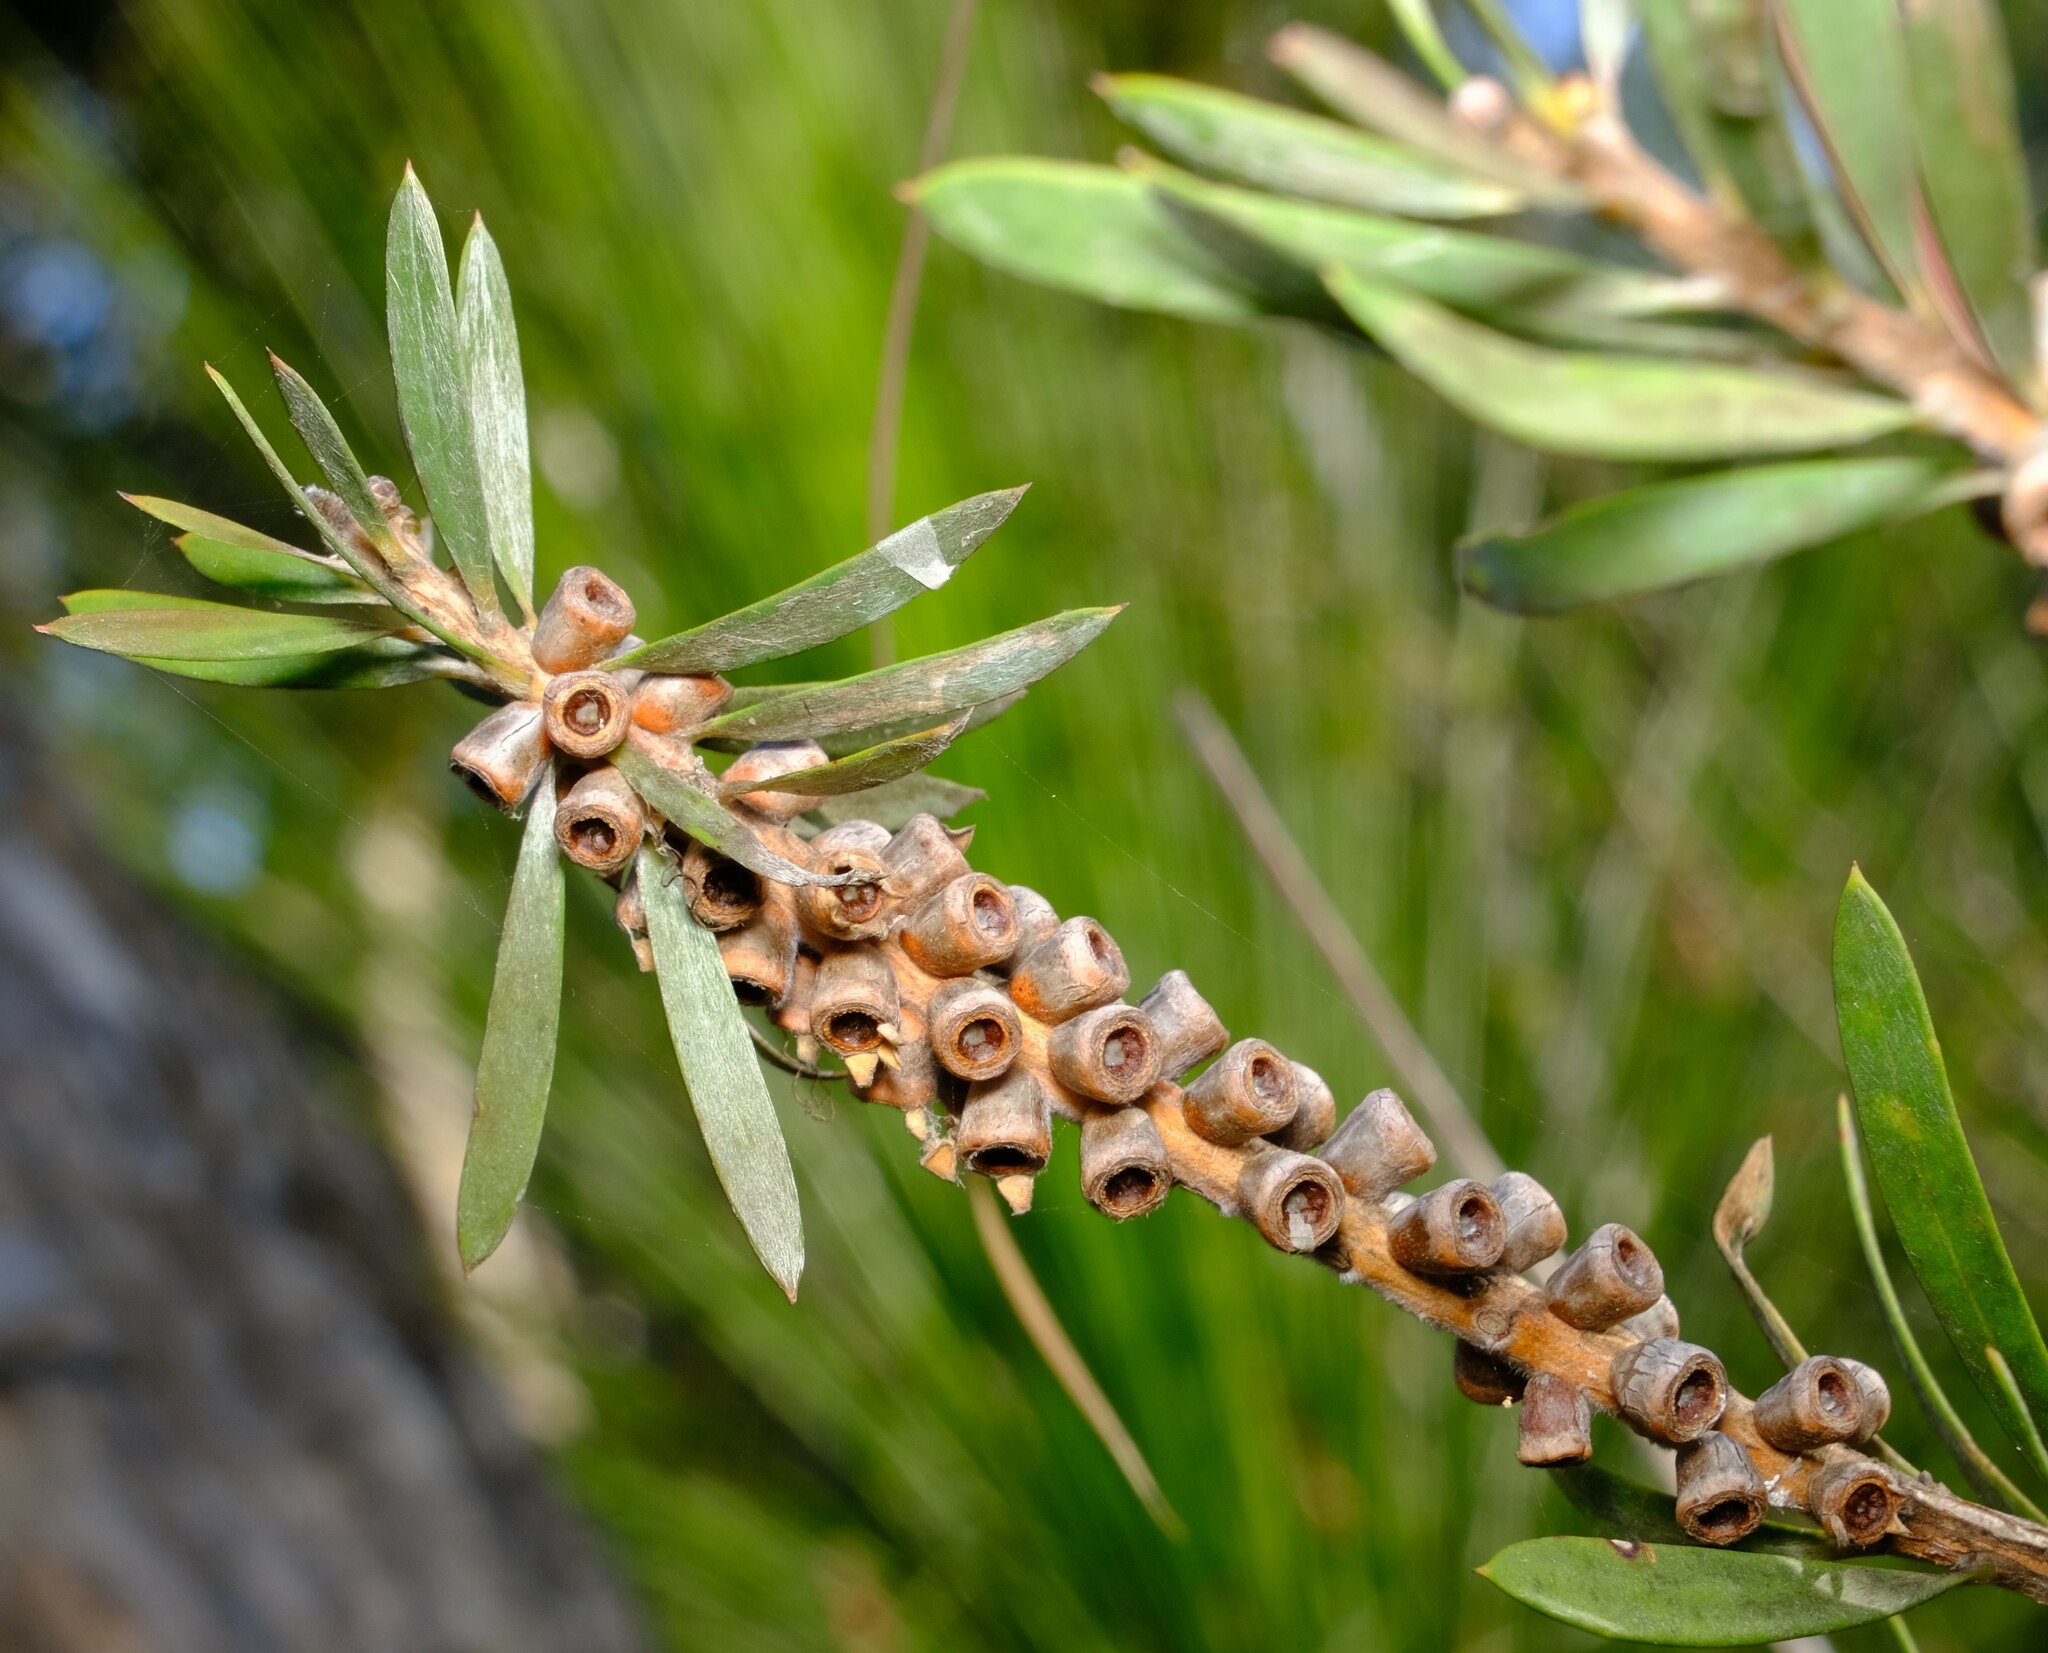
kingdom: Plantae
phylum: Tracheophyta
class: Magnoliopsida
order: Myrtales
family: Myrtaceae
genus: Callistemon
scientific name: Callistemon pachyphyllus
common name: Wallum bottlebrush
